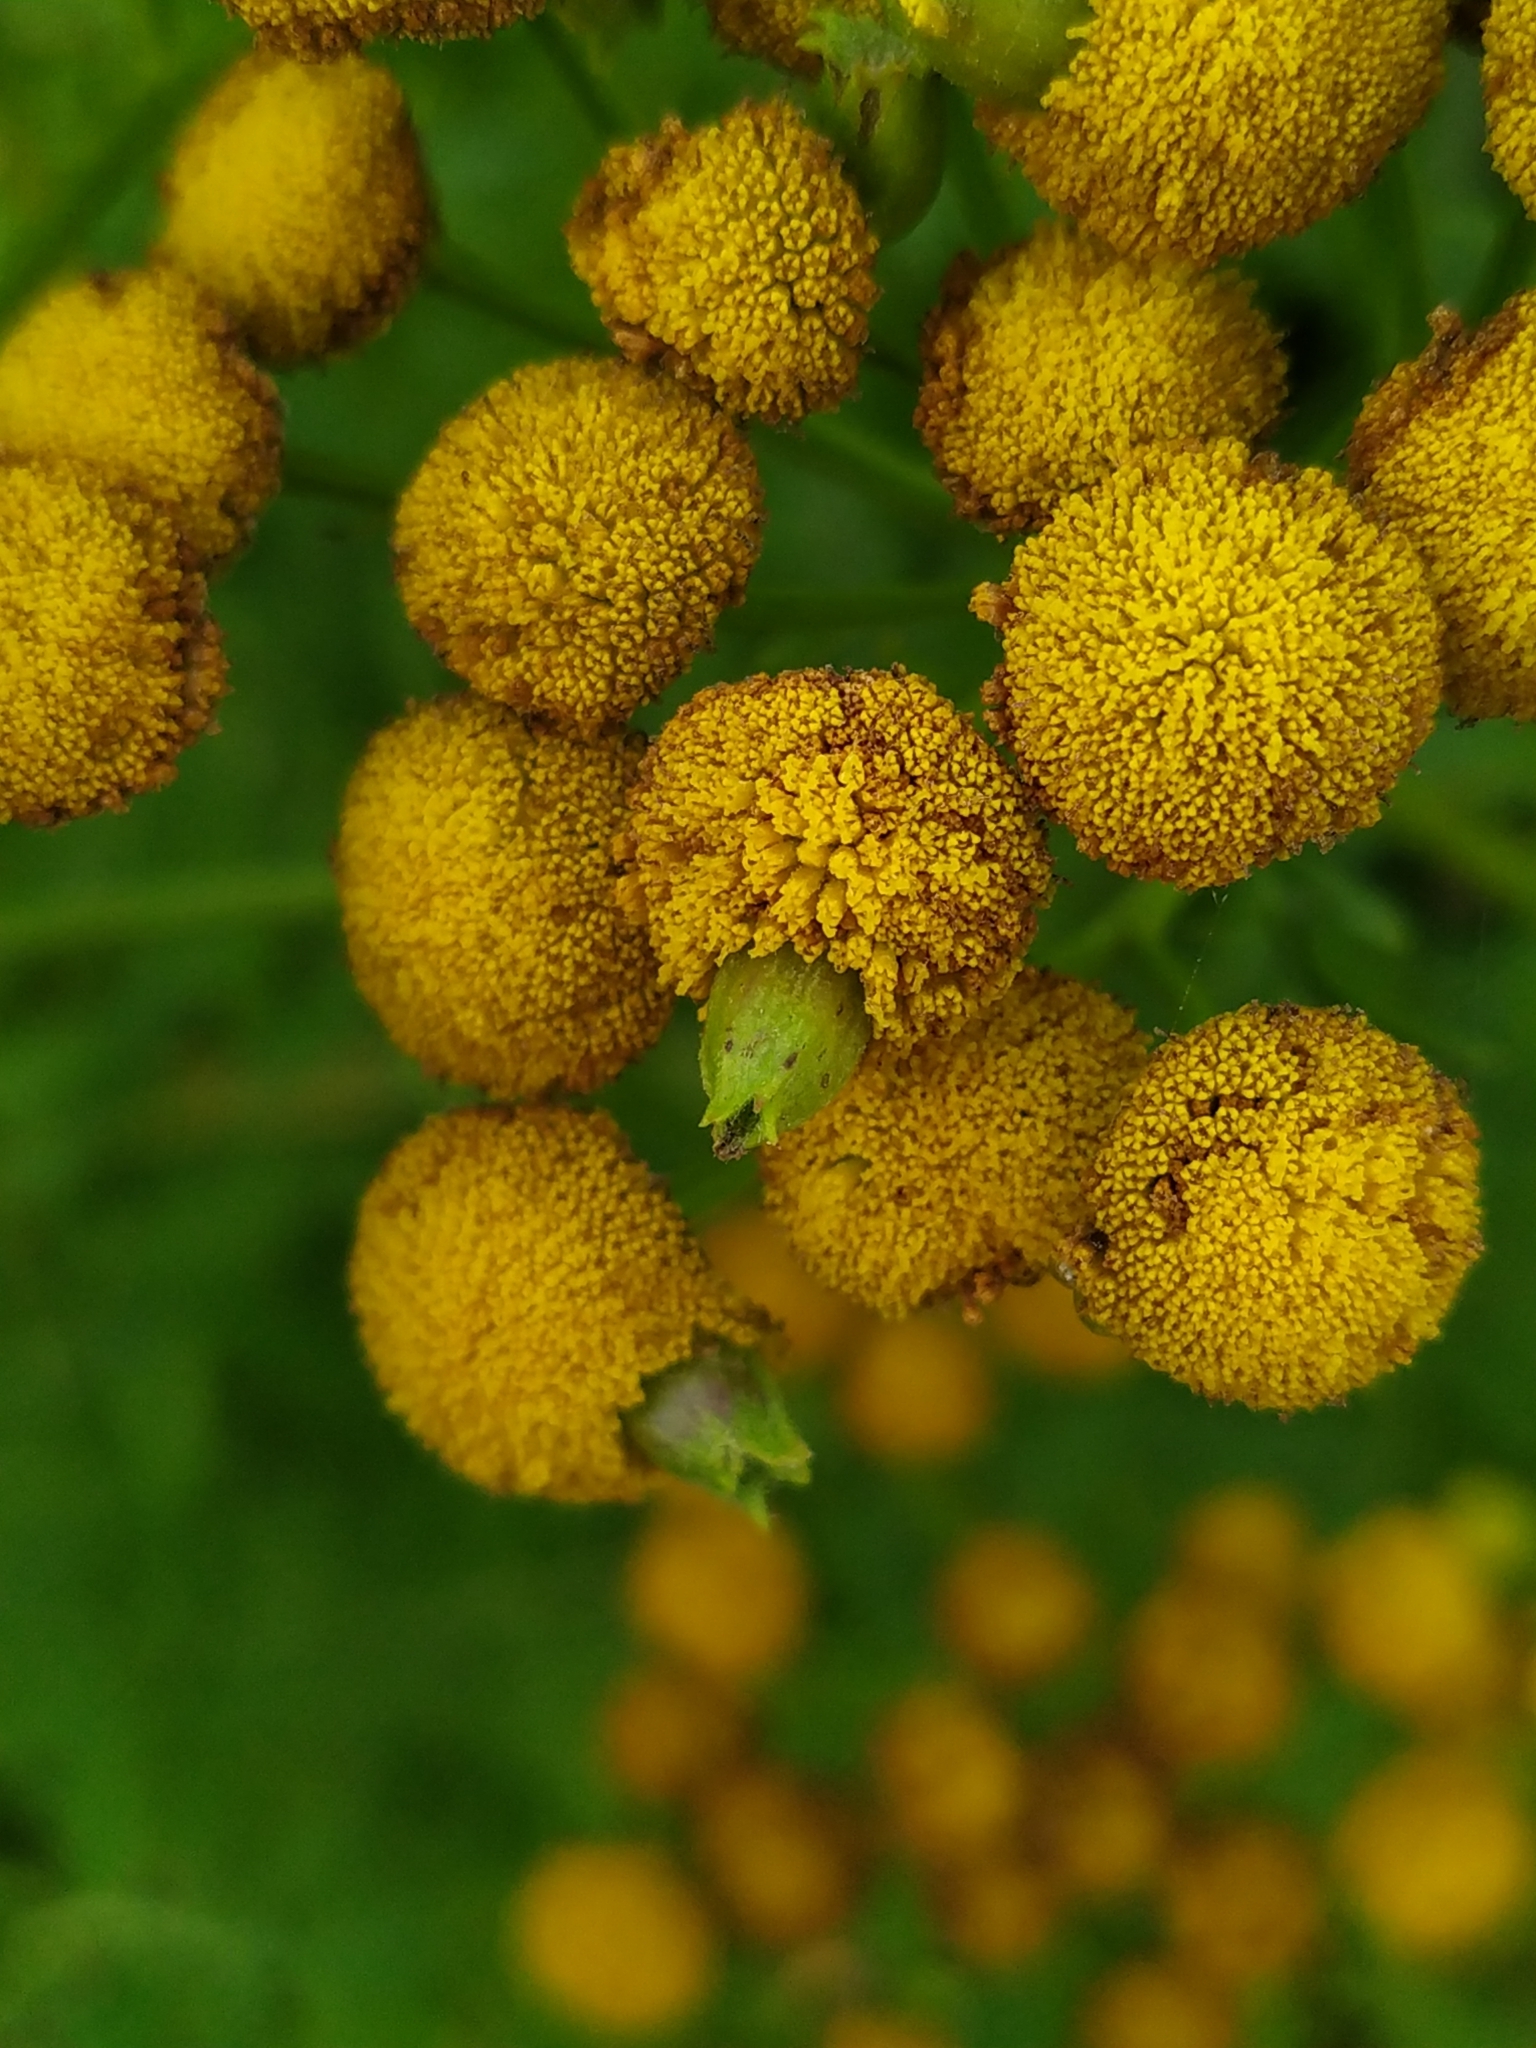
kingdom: Animalia
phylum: Arthropoda
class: Insecta
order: Diptera
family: Cecidomyiidae
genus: Rhopalomyia
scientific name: Rhopalomyia tanaceticolus
